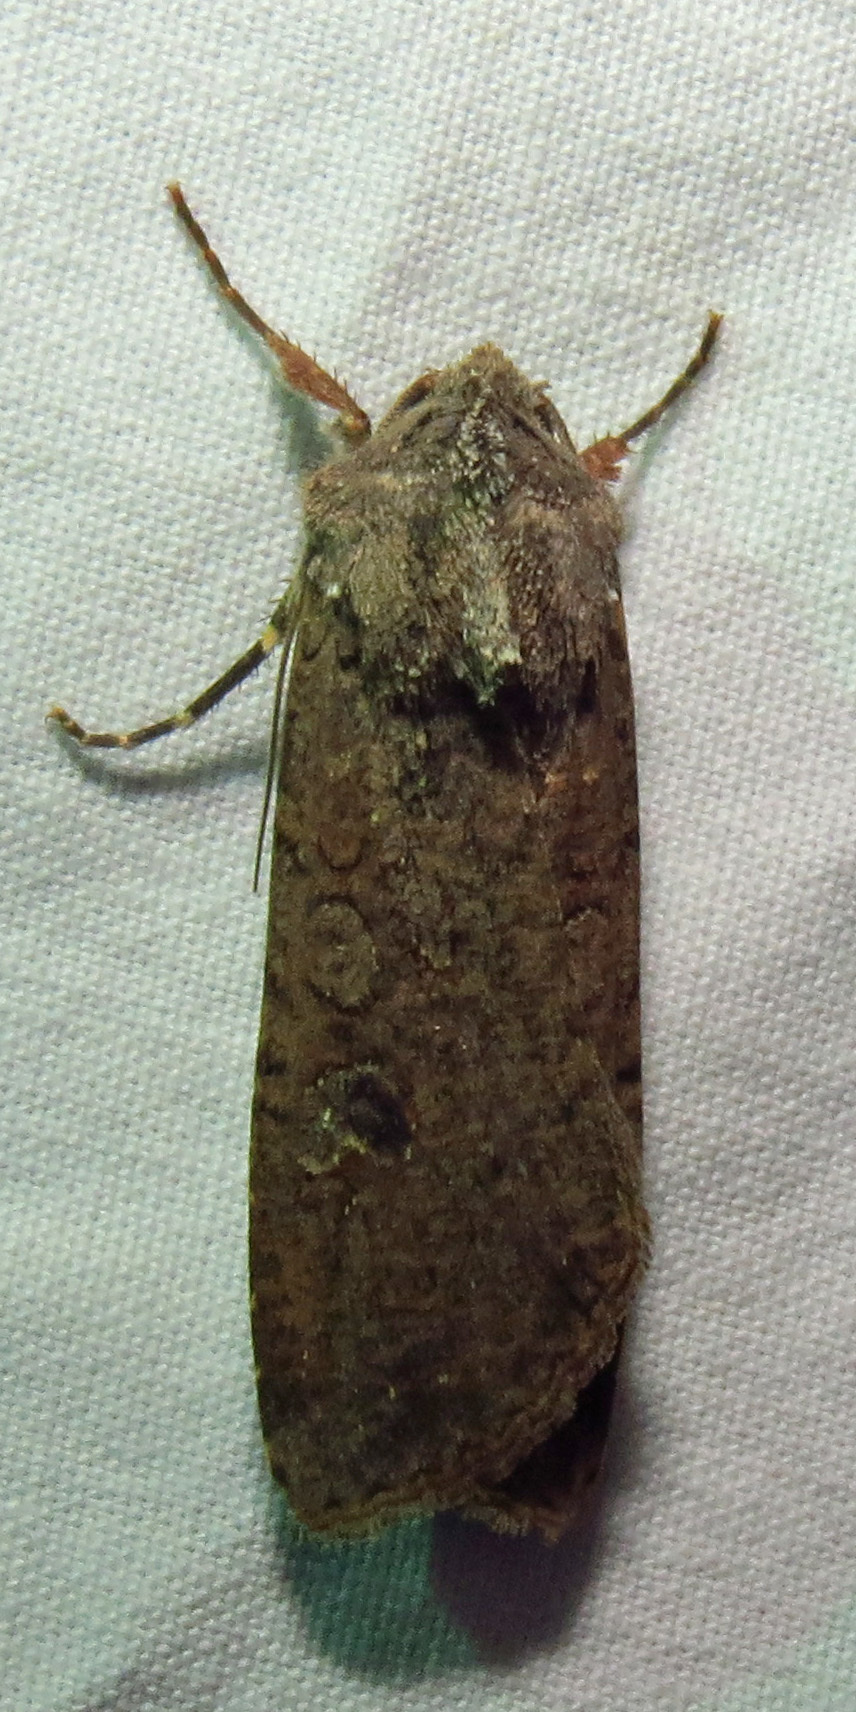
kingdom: Animalia
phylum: Arthropoda
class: Insecta
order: Lepidoptera
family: Noctuidae
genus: Peridroma
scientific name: Peridroma saucia
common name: Pearly underwing
